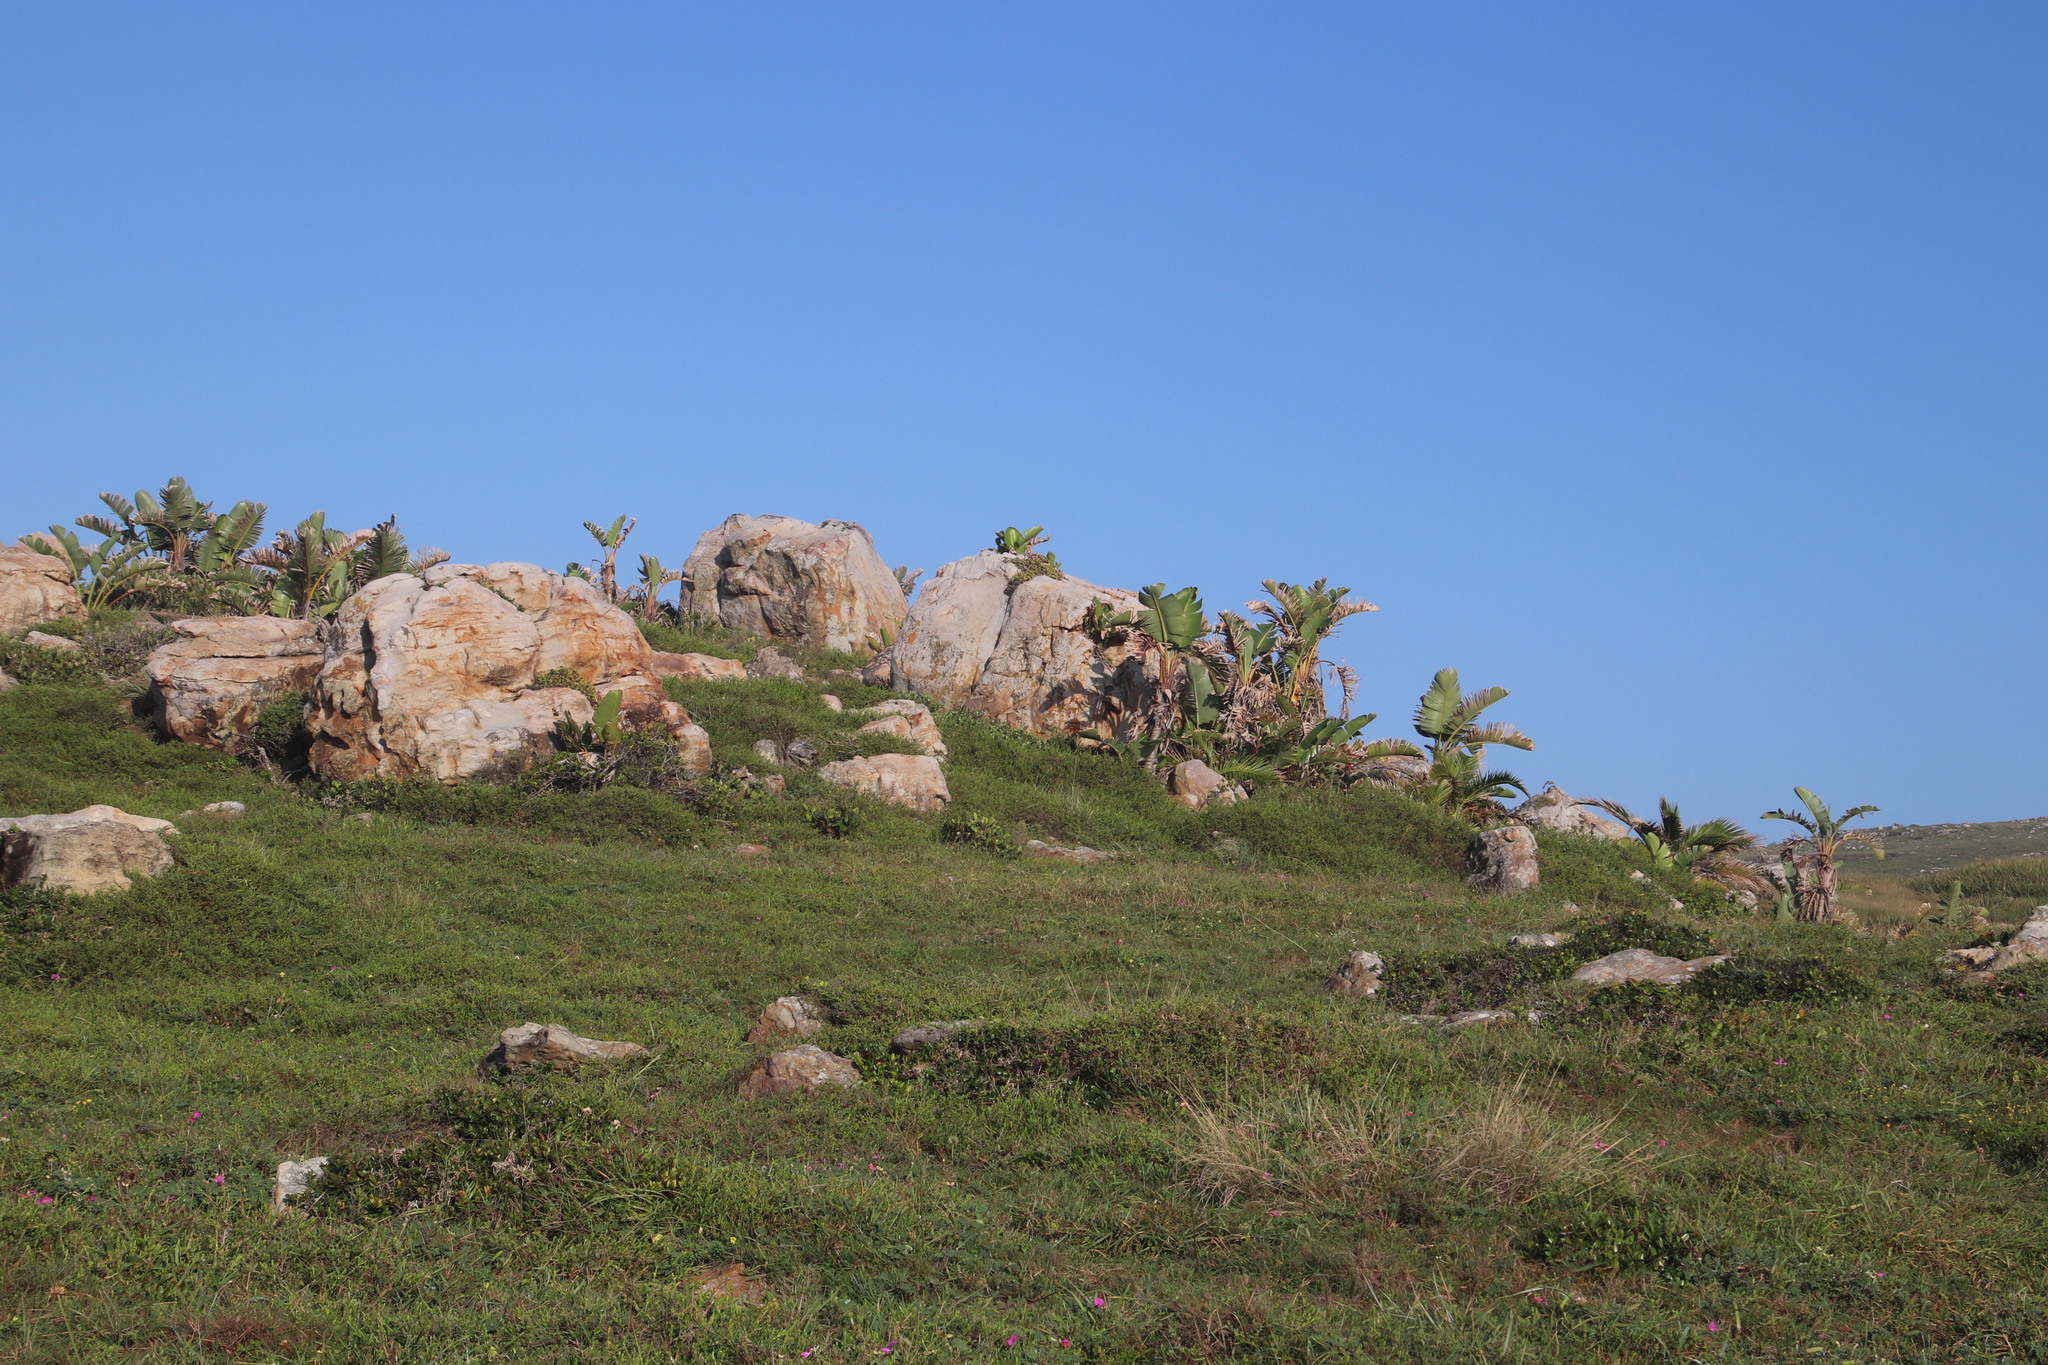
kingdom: Plantae
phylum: Tracheophyta
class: Liliopsida
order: Zingiberales
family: Strelitziaceae
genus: Strelitzia
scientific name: Strelitzia nicolai
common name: Bird-of-paradise tree
